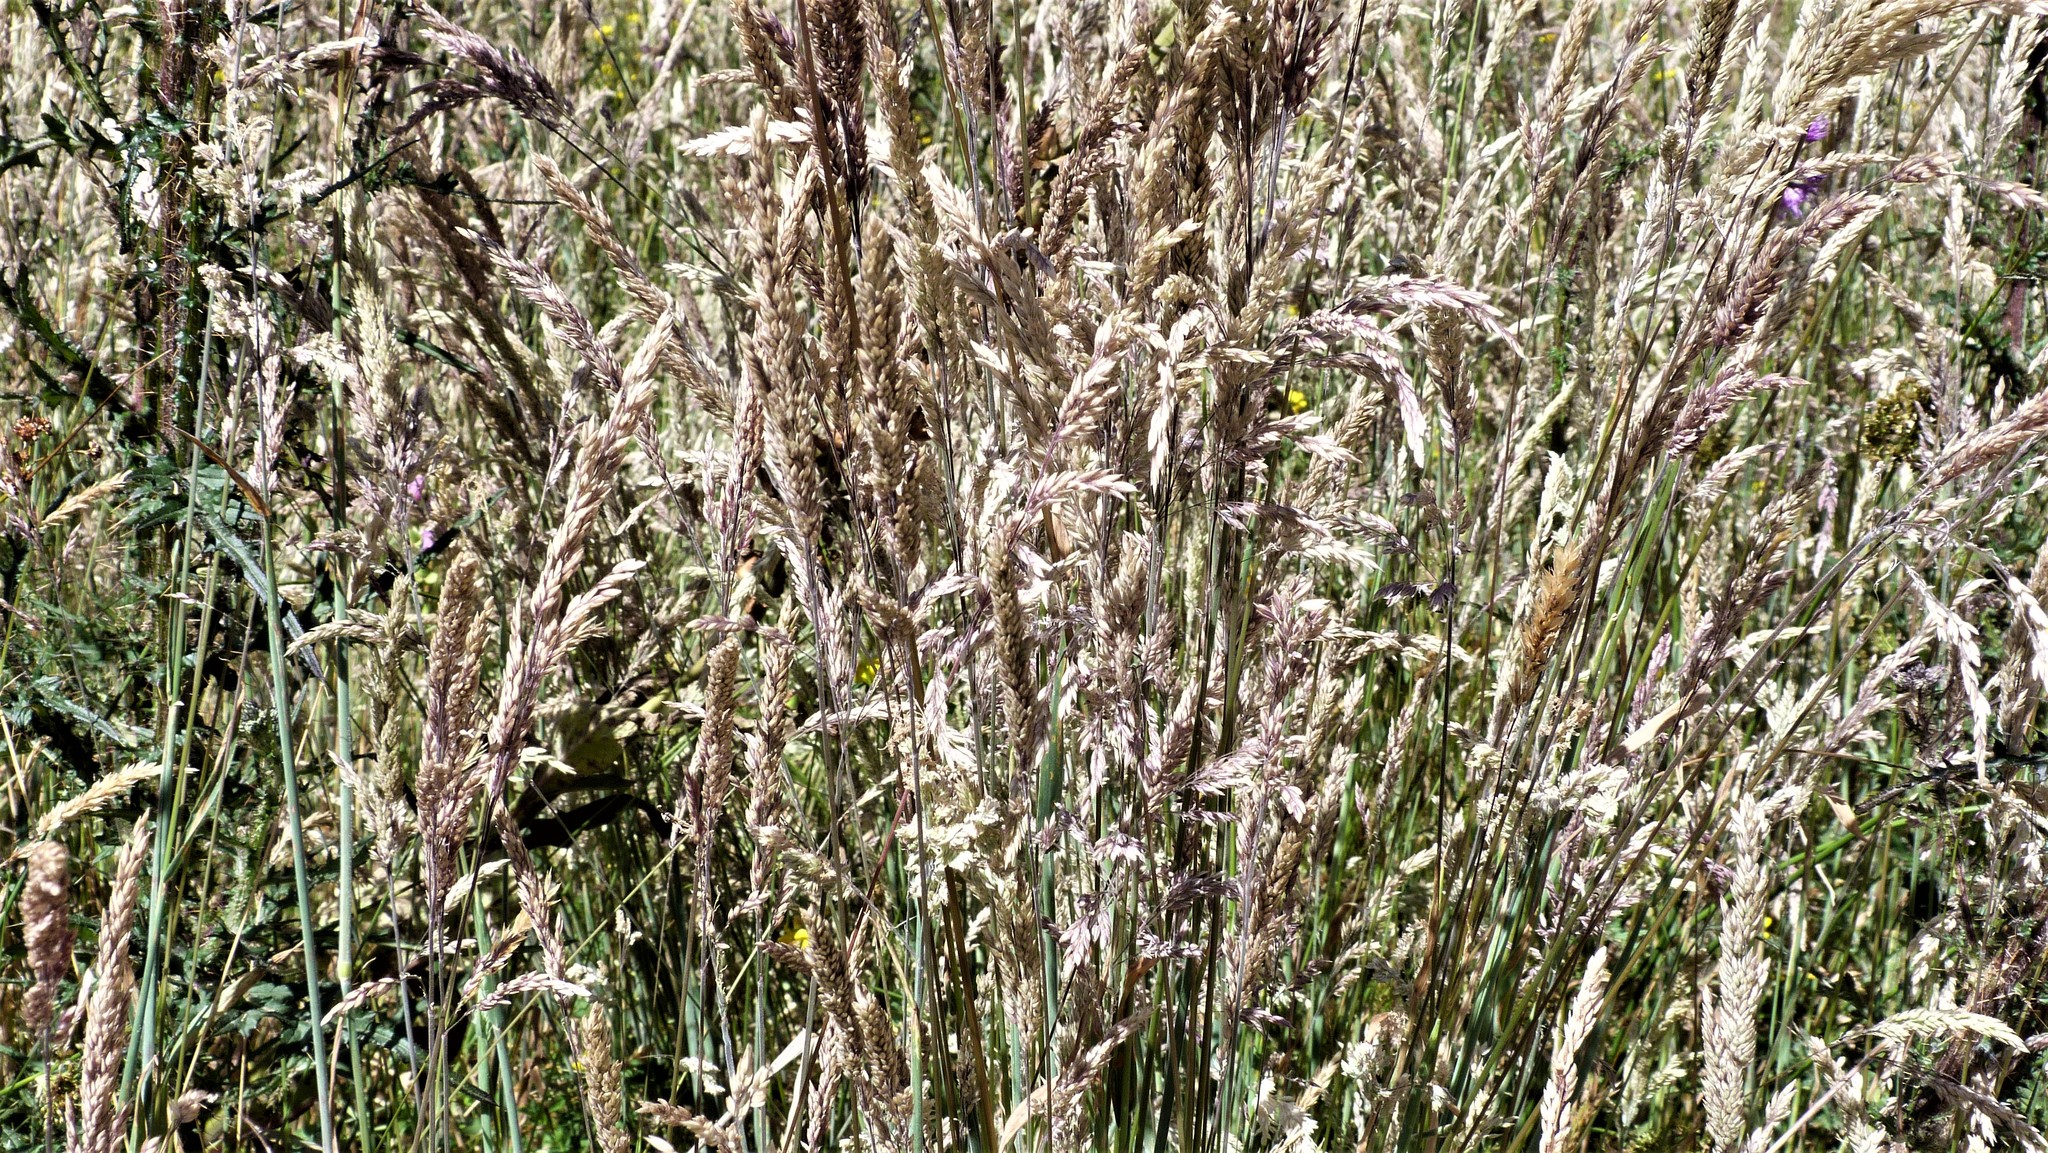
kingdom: Plantae
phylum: Tracheophyta
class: Liliopsida
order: Poales
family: Poaceae
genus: Holcus
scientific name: Holcus lanatus
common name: Yorkshire-fog
